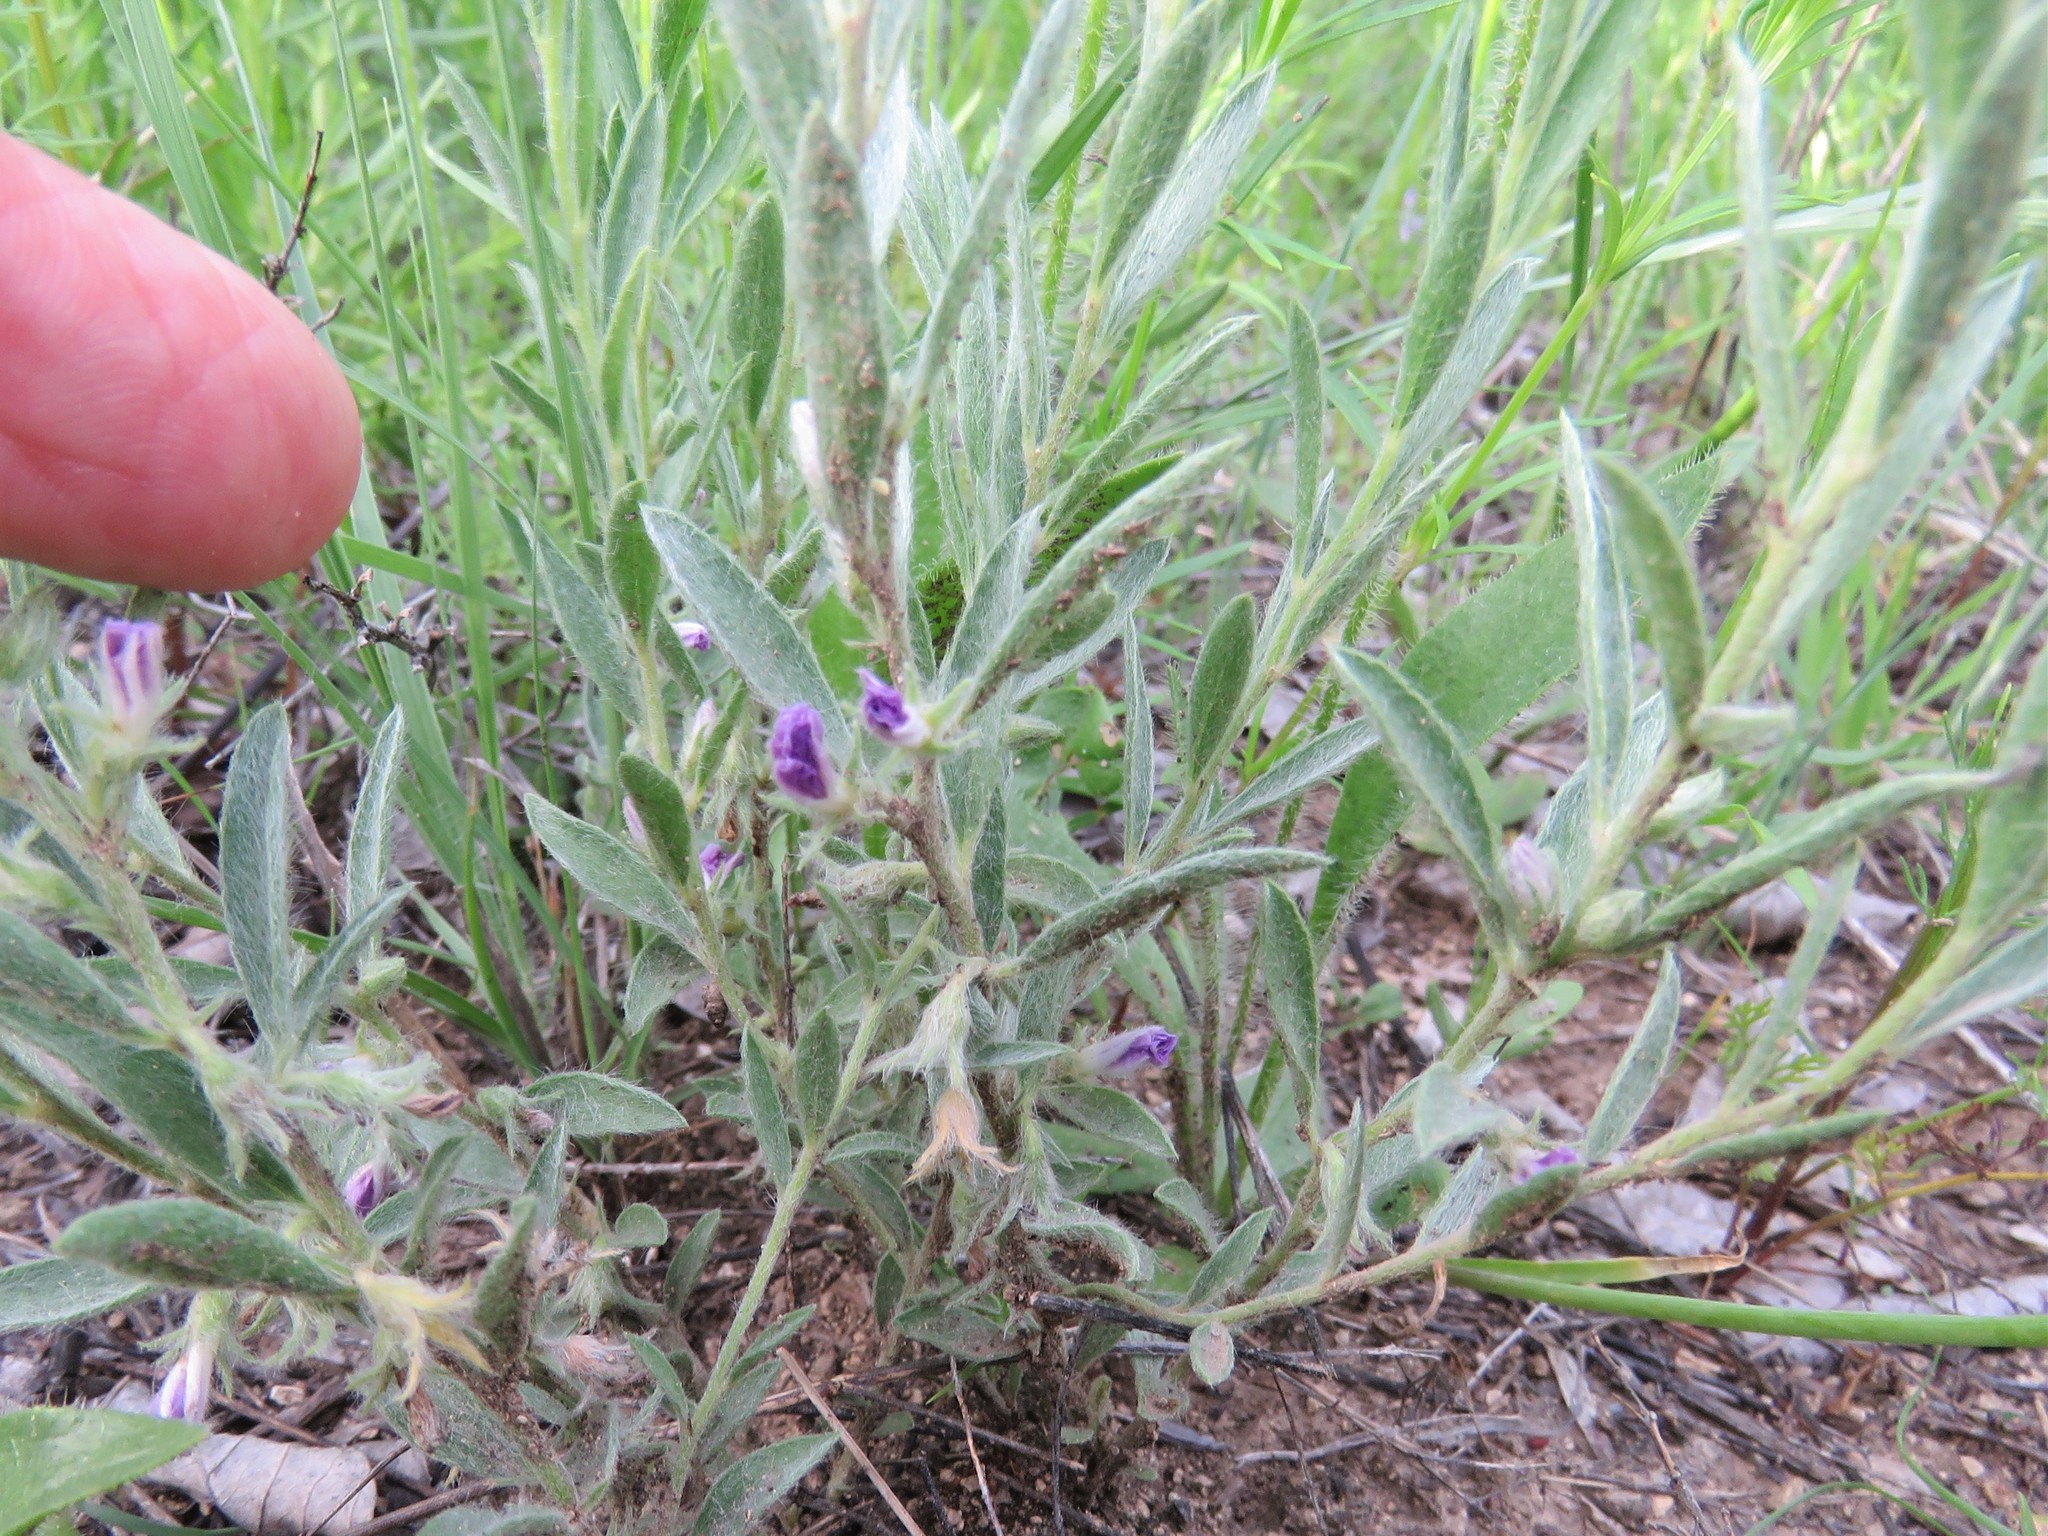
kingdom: Plantae
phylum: Tracheophyta
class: Magnoliopsida
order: Solanales
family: Convolvulaceae
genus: Evolvulus
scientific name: Evolvulus nuttallianus
